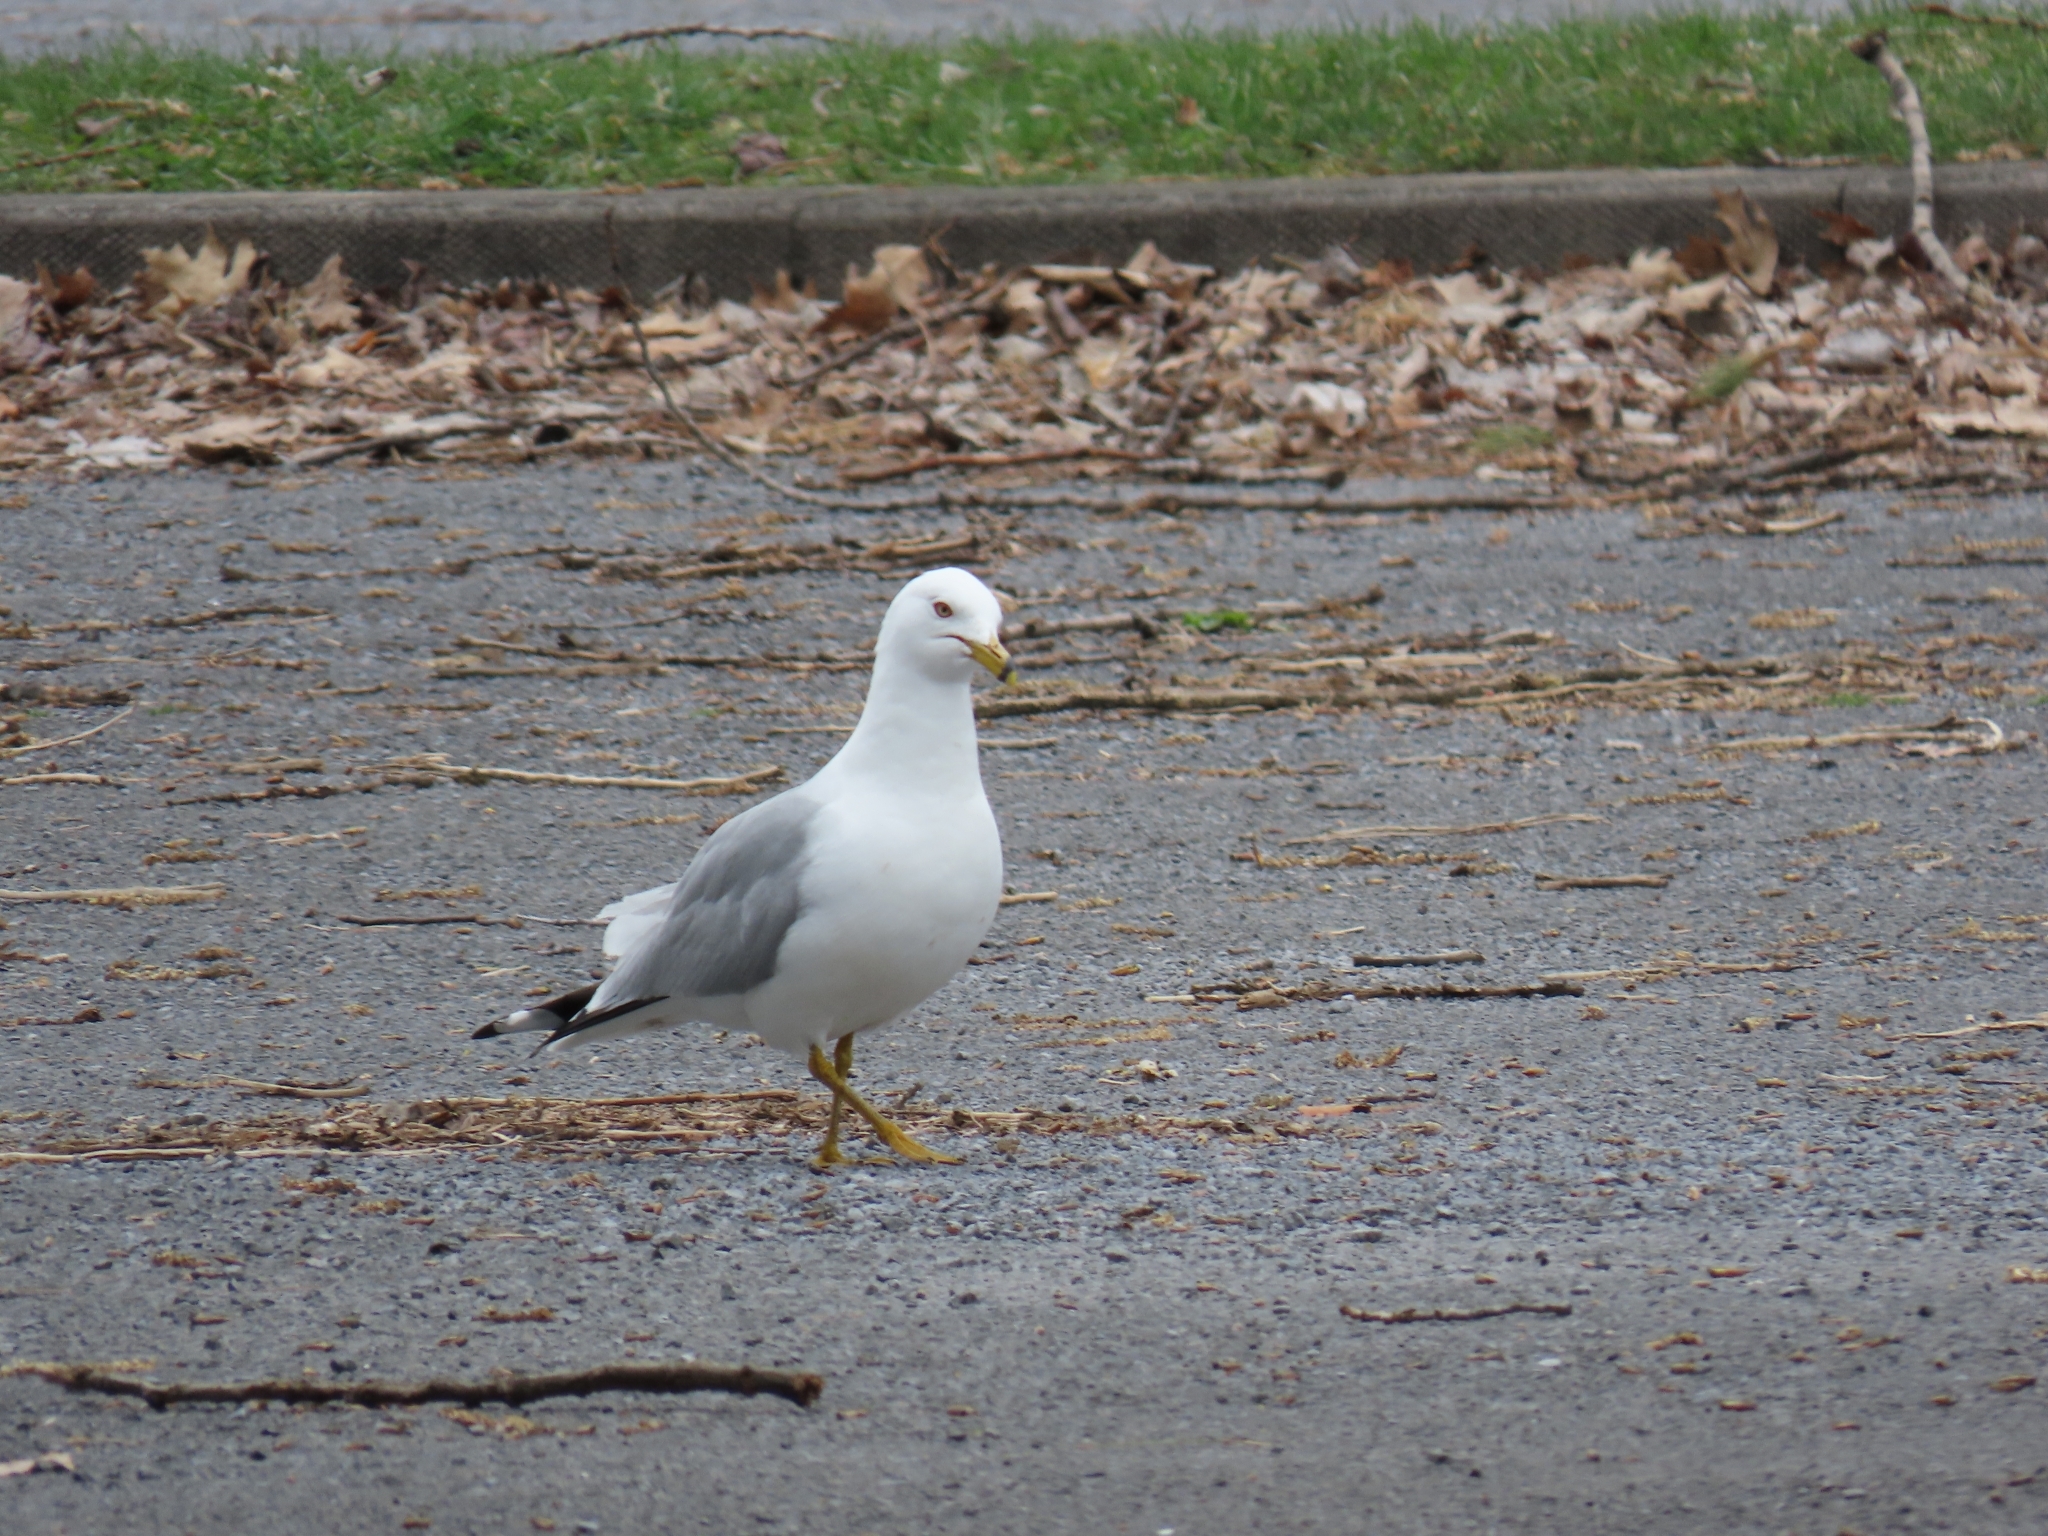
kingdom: Animalia
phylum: Chordata
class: Aves
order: Charadriiformes
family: Laridae
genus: Larus
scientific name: Larus delawarensis
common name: Ring-billed gull
